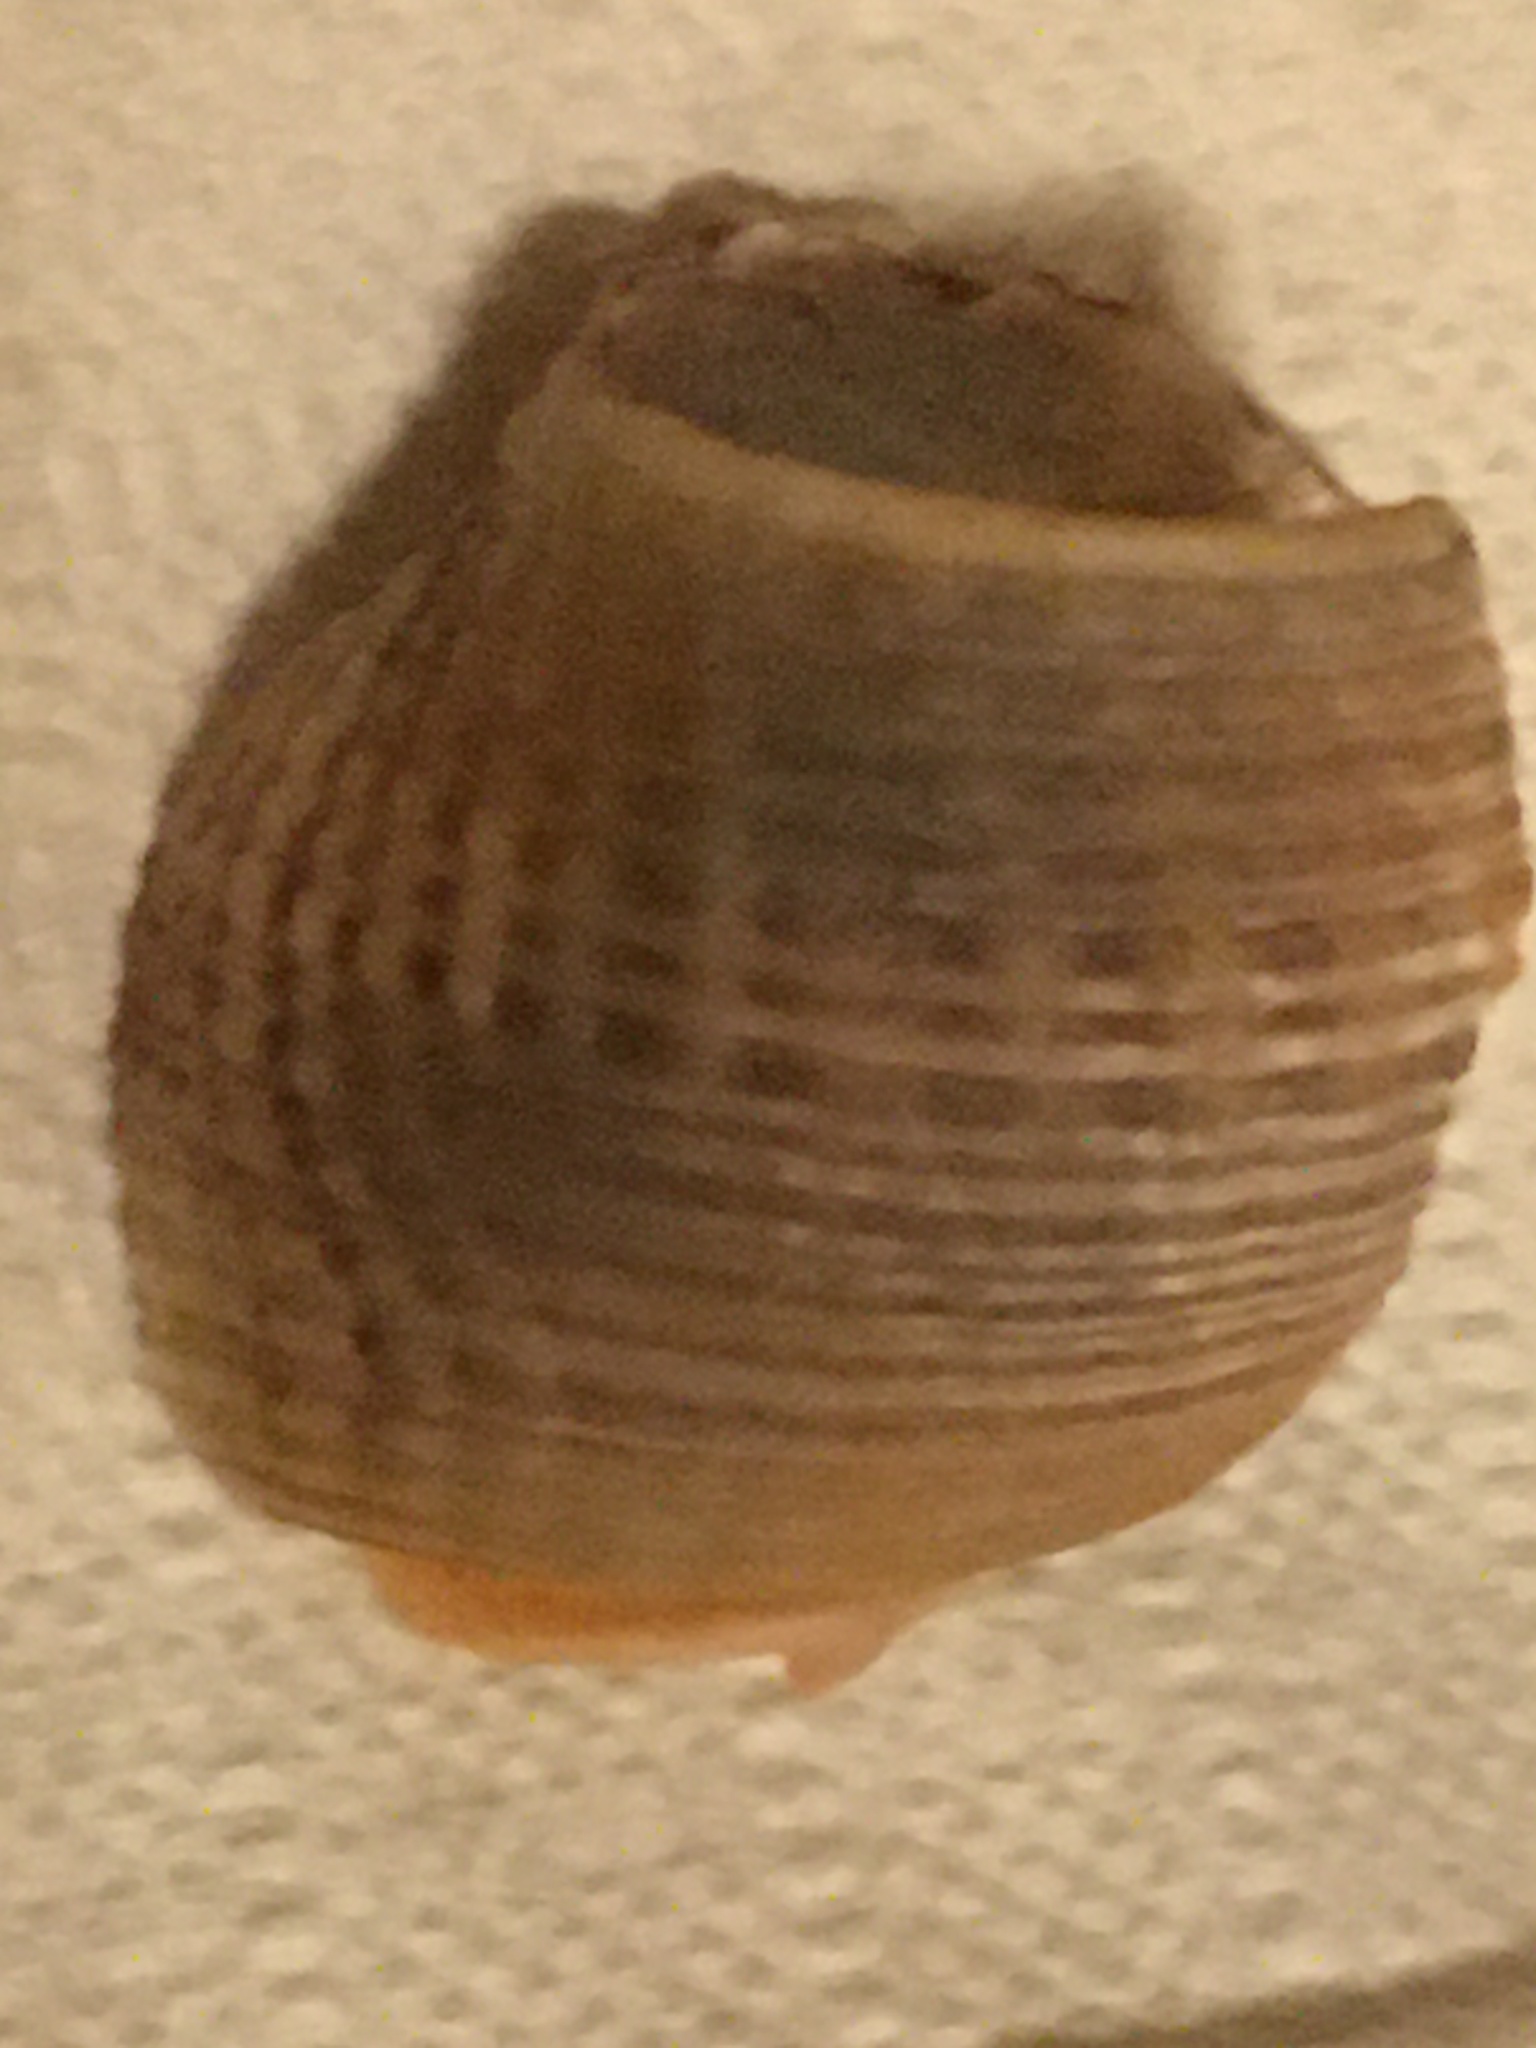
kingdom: Animalia
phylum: Mollusca
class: Gastropoda
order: Neogastropoda
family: Nassariidae
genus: Caesia
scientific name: Caesia fossata
